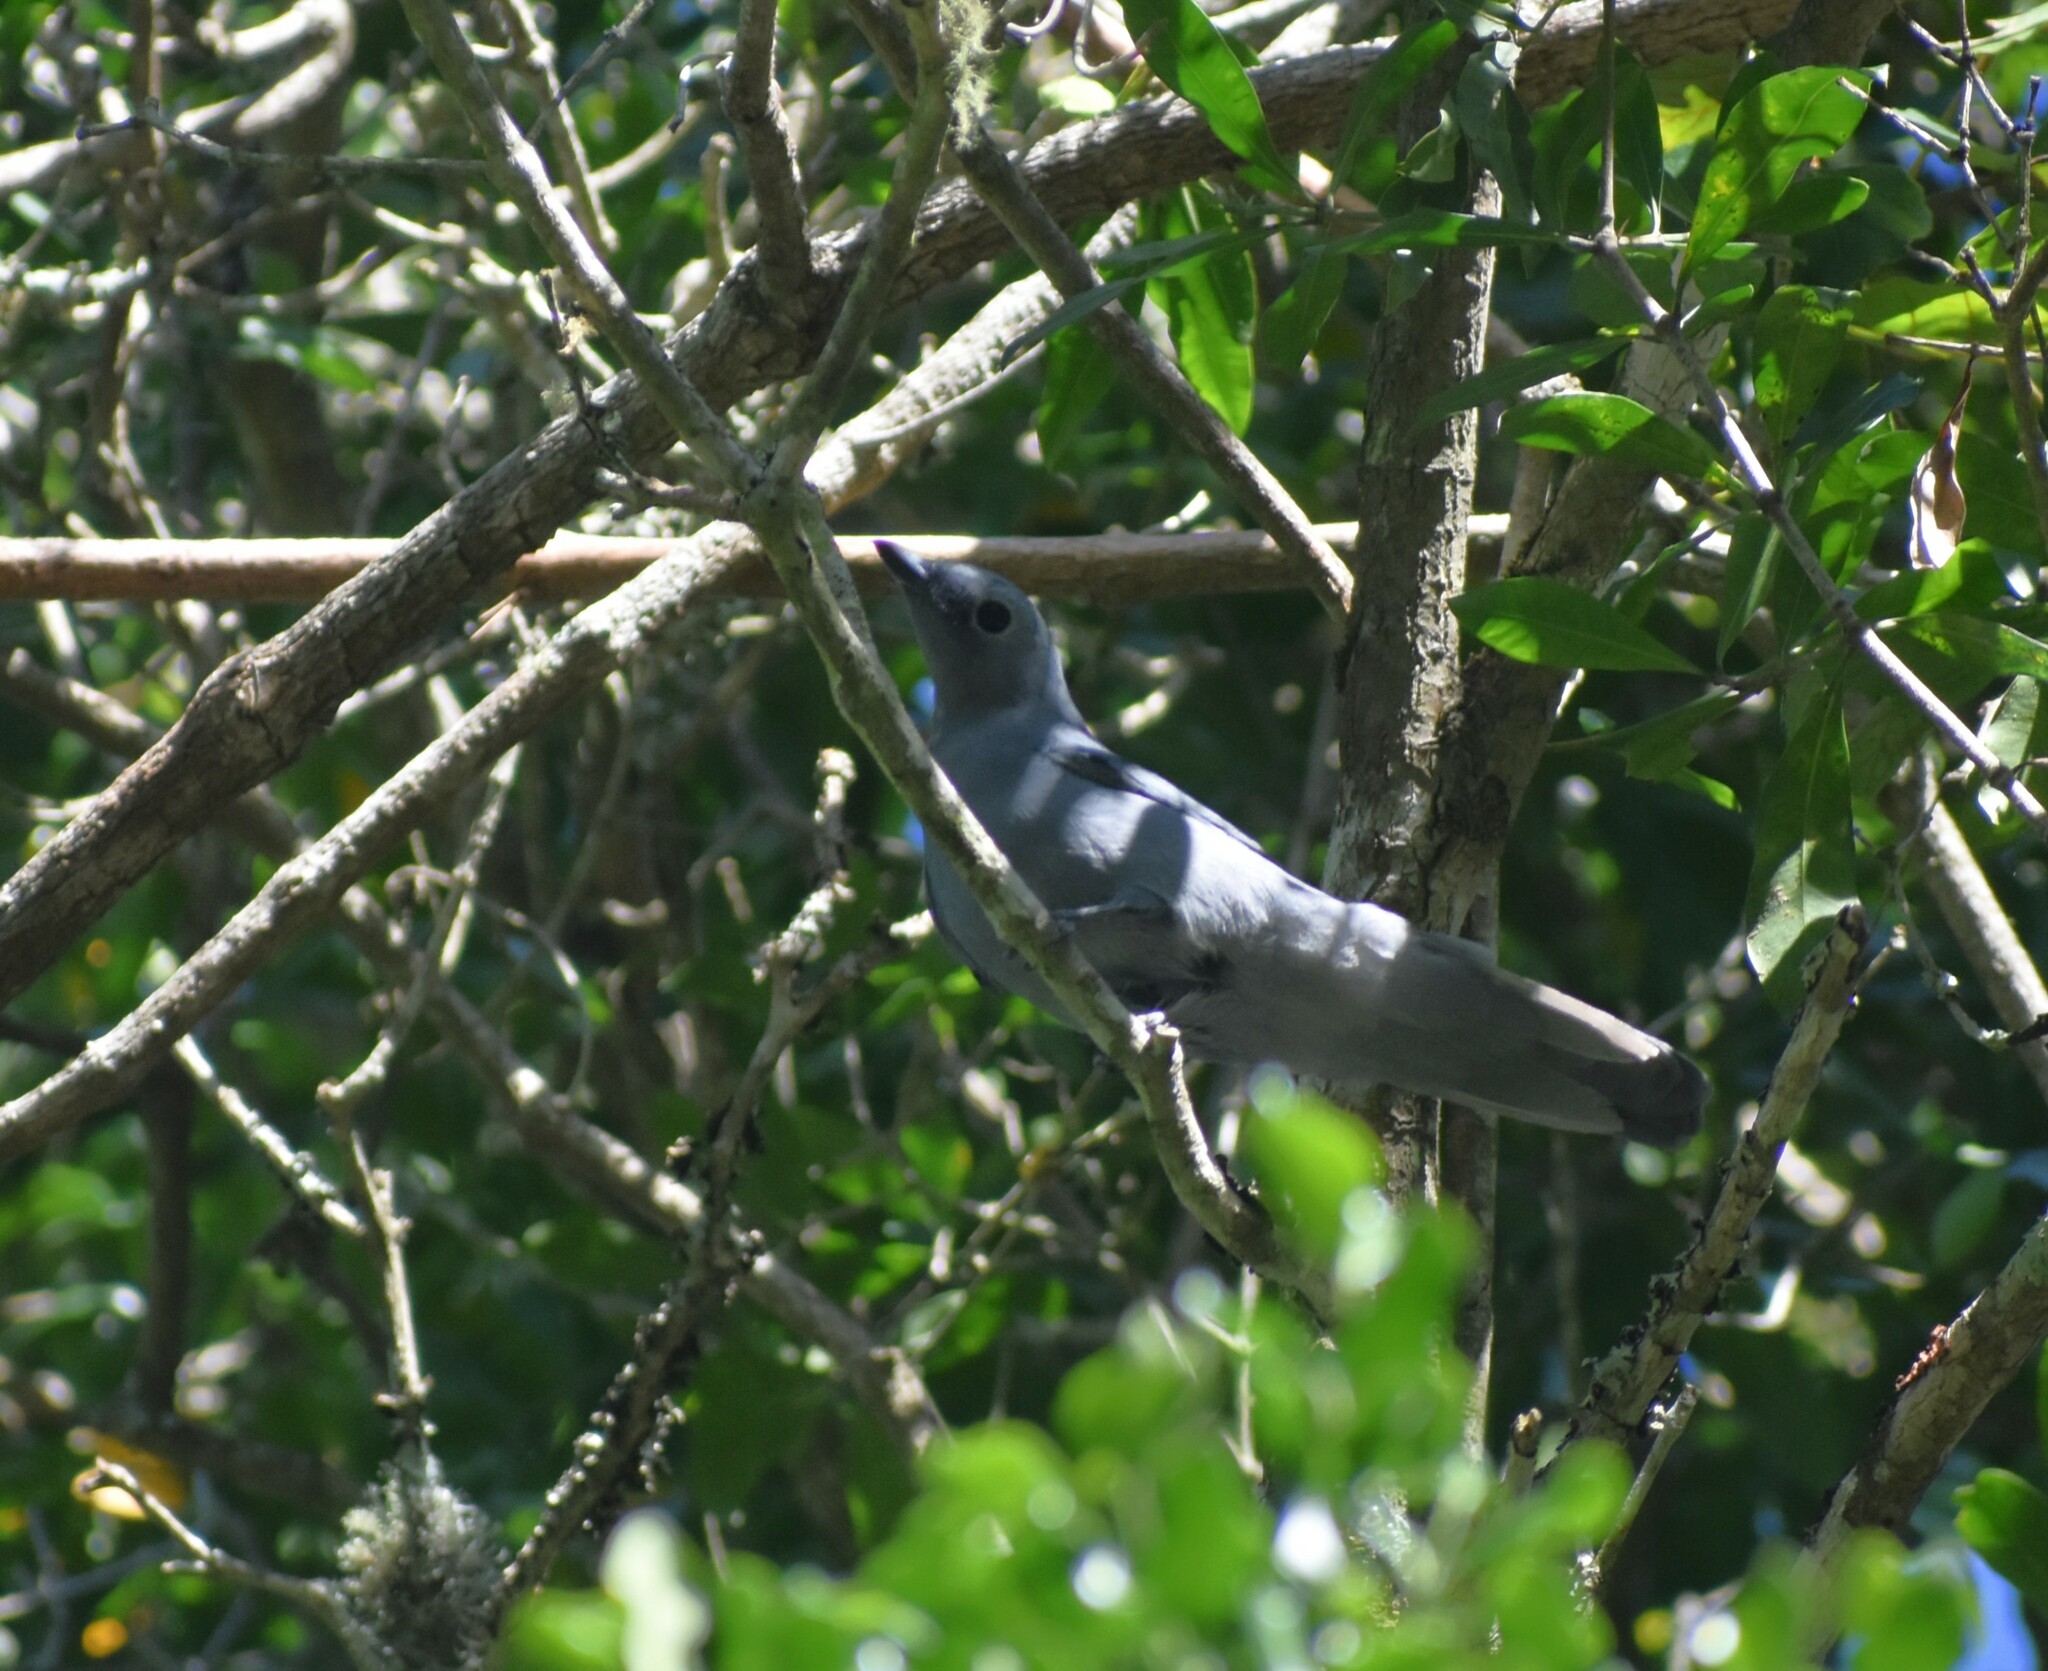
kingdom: Animalia
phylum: Chordata
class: Aves
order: Passeriformes
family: Campephagidae
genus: Coracina
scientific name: Coracina caesia
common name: Grey cuckooshrike
